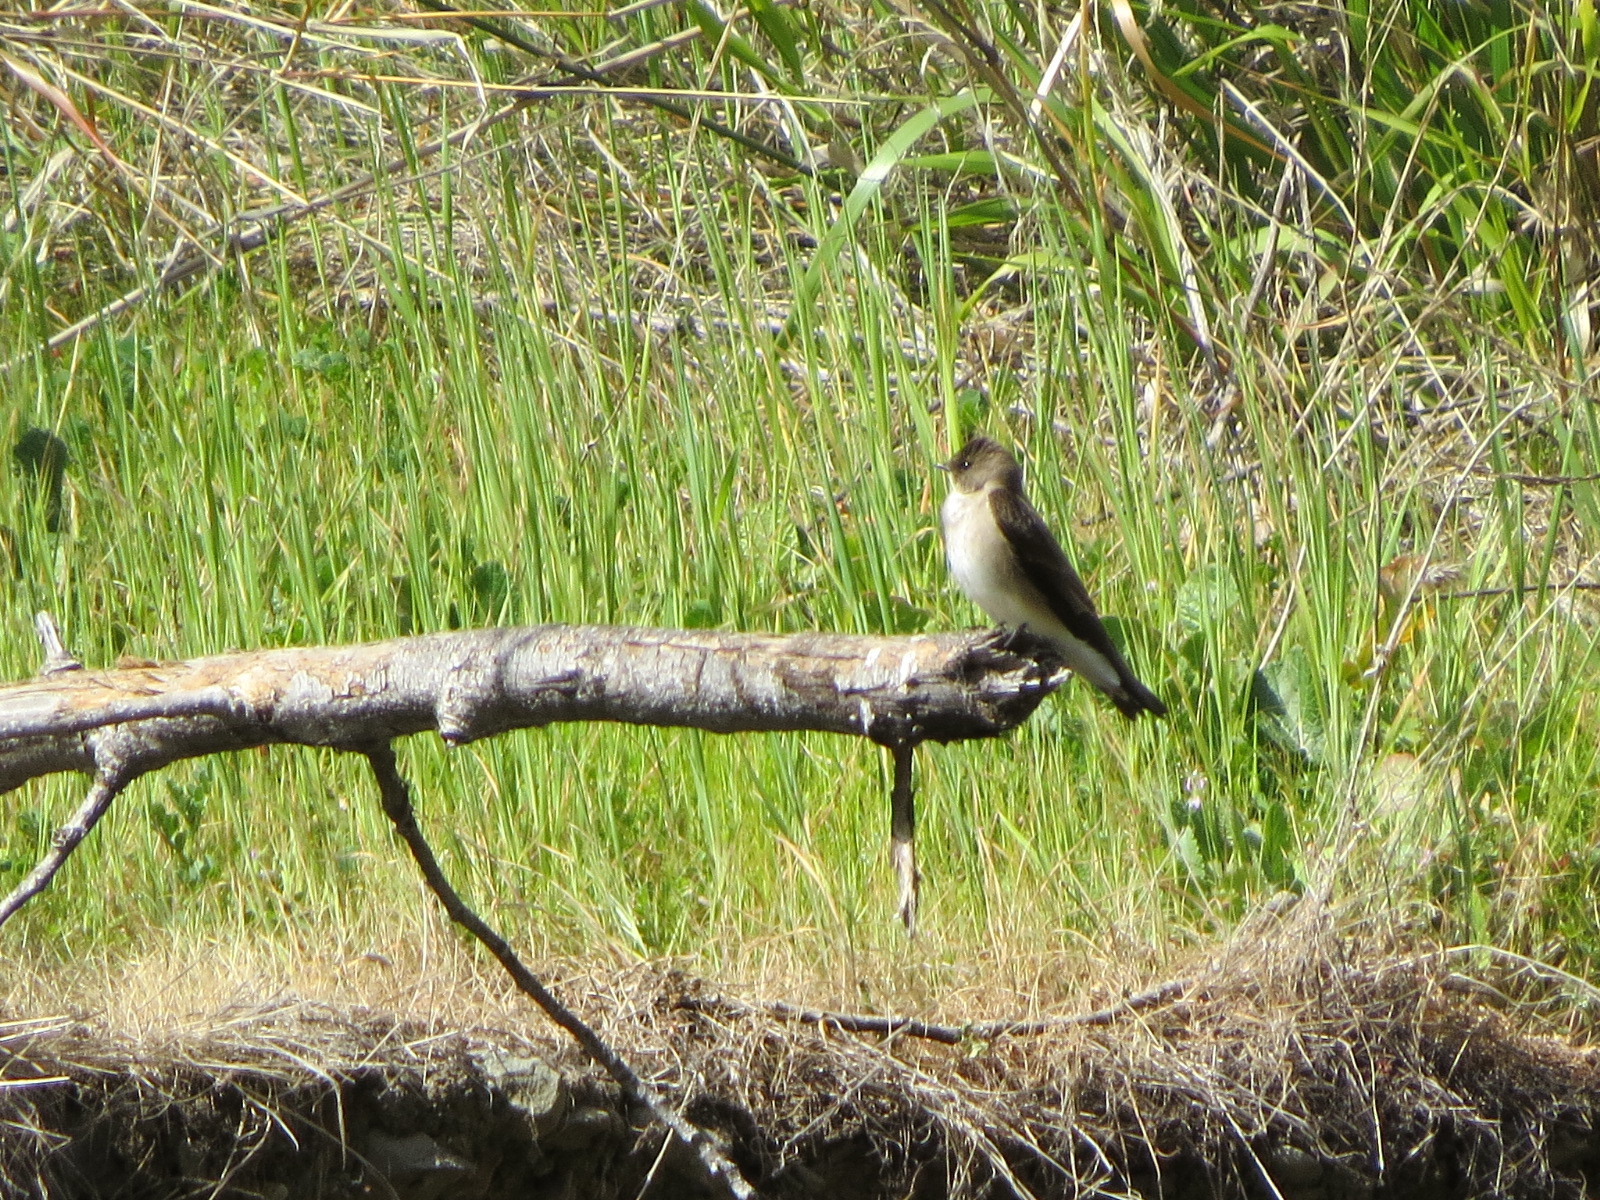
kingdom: Animalia
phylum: Chordata
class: Aves
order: Passeriformes
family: Hirundinidae
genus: Stelgidopteryx
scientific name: Stelgidopteryx serripennis
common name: Northern rough-winged swallow
